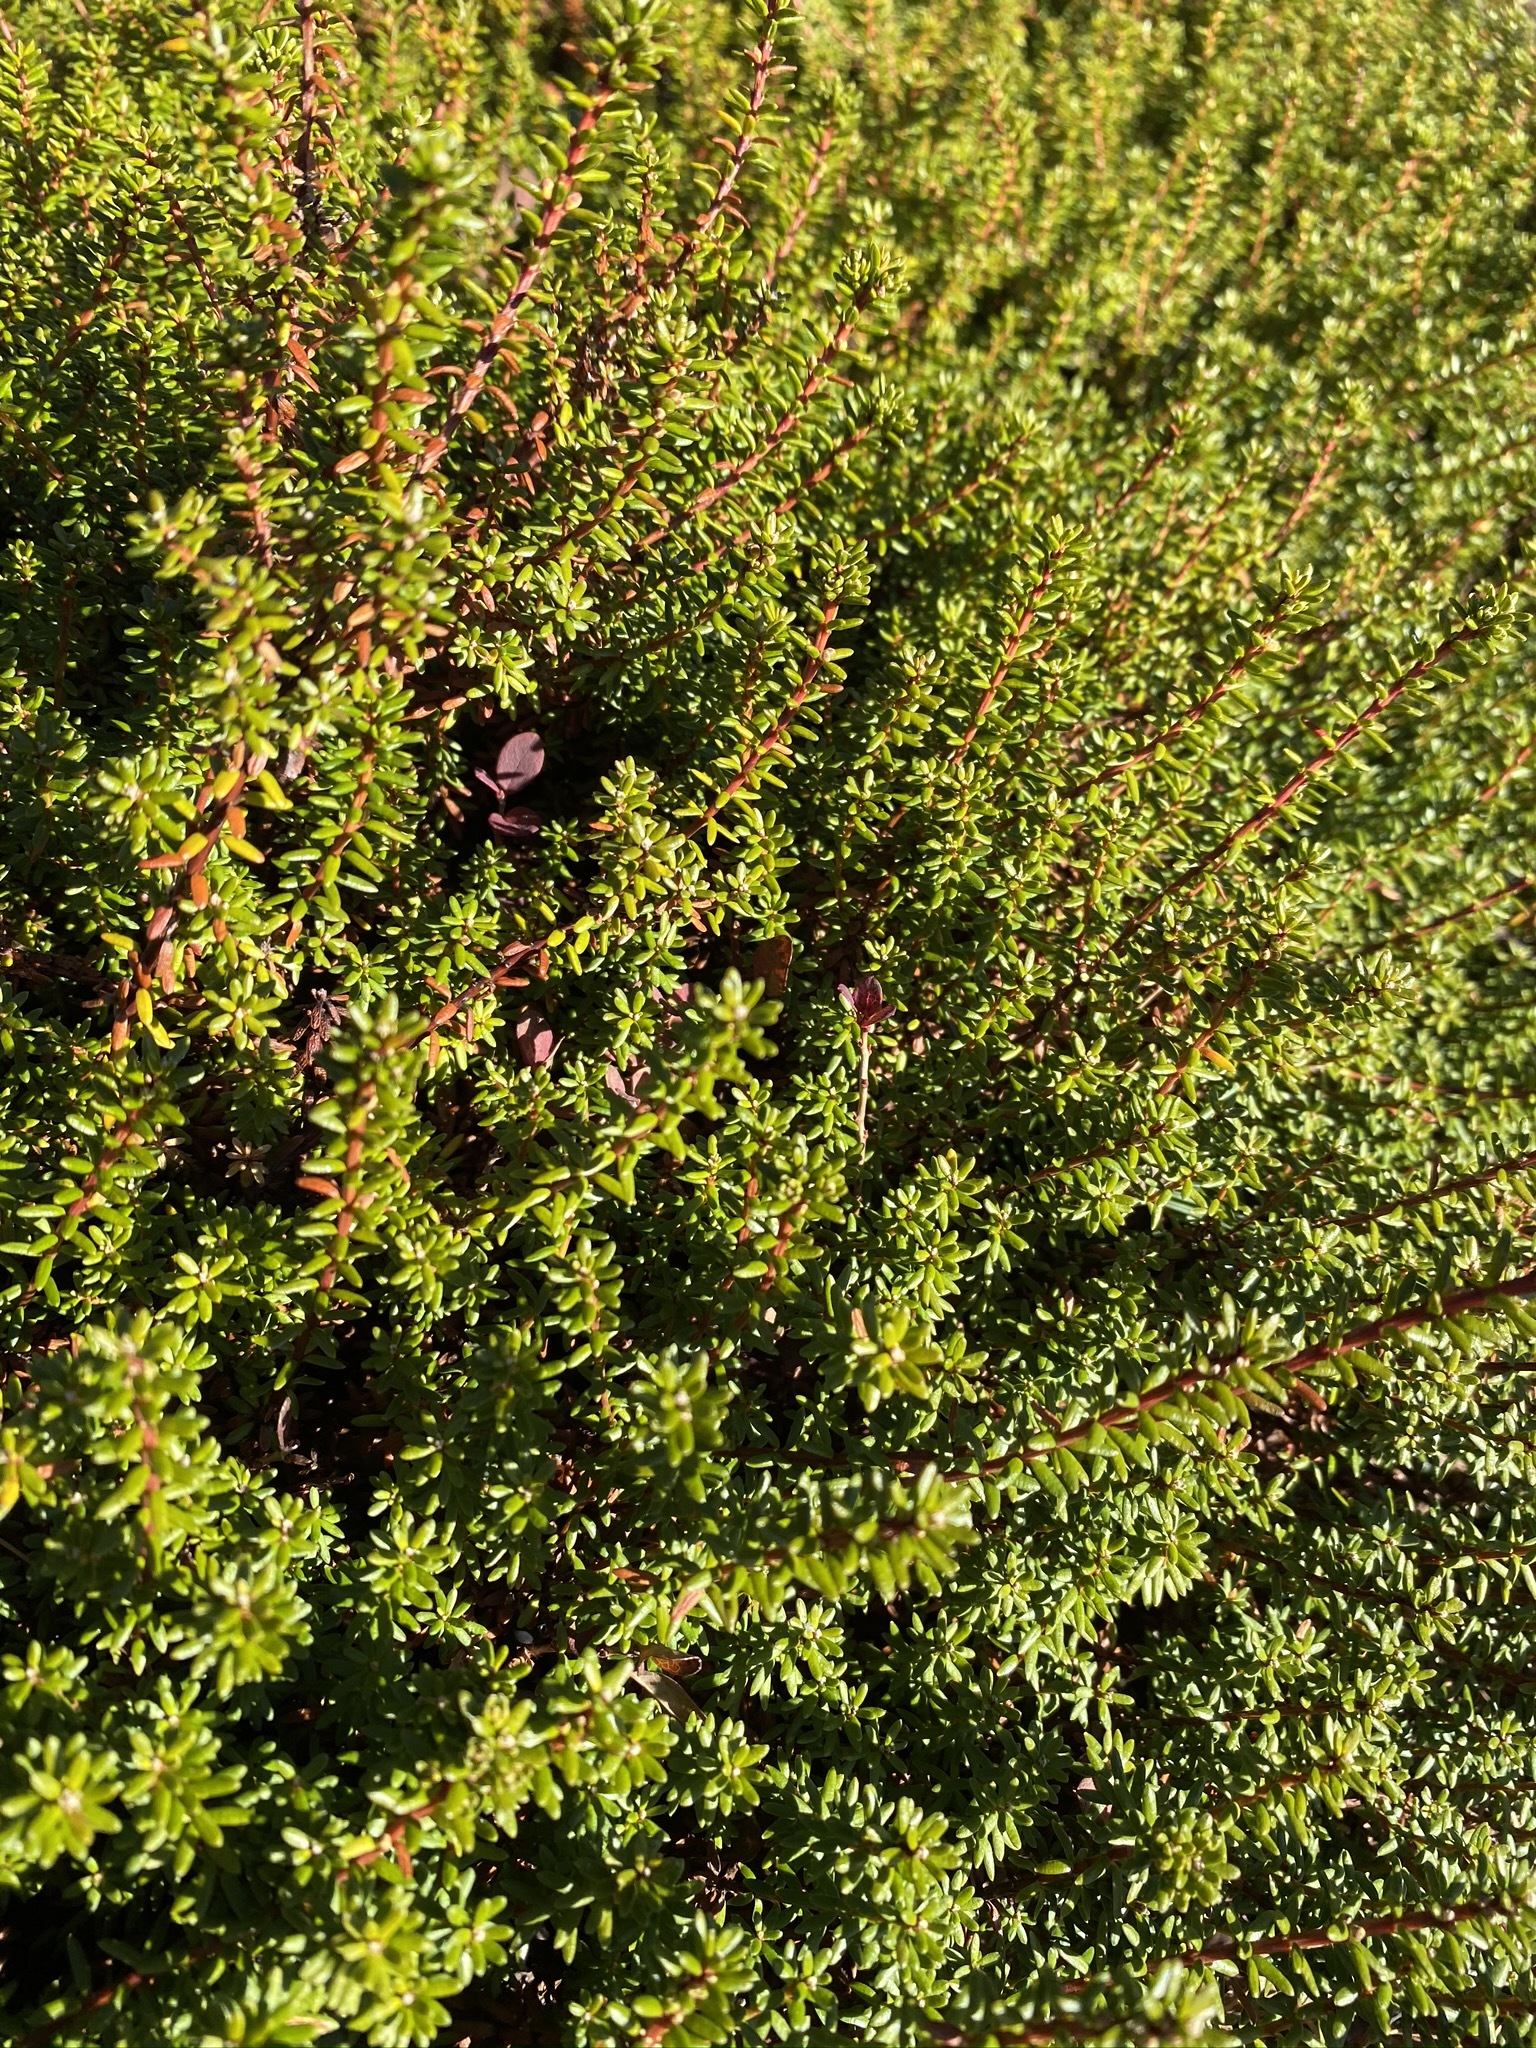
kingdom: Plantae
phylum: Tracheophyta
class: Magnoliopsida
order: Ericales
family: Ericaceae
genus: Empetrum
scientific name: Empetrum nigrum
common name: Black crowberry
